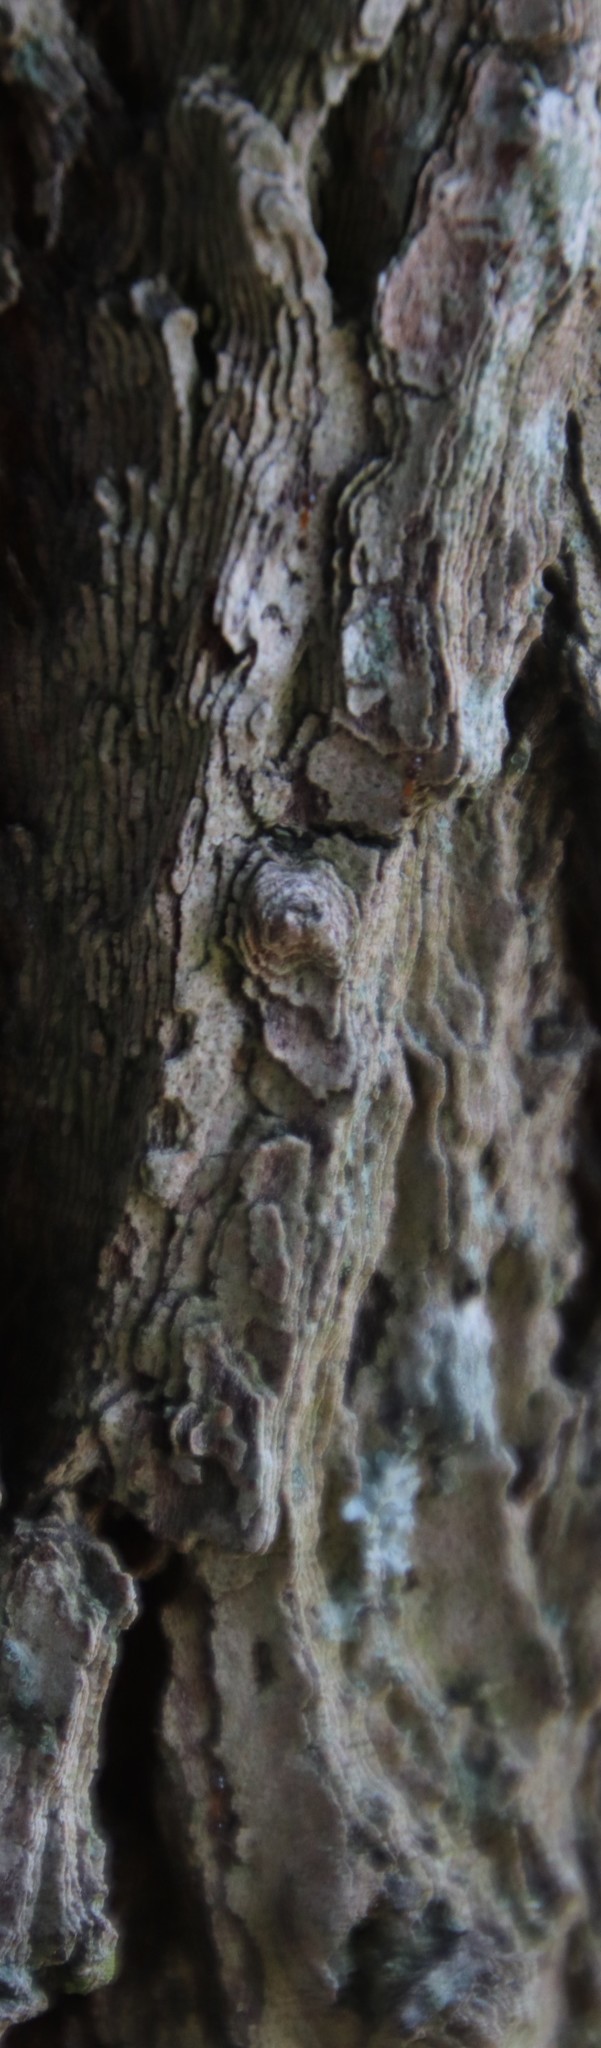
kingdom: Animalia
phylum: Arthropoda
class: Insecta
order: Hymenoptera
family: Formicidae
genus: Pheidole
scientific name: Pheidole megacephala
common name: Bigheaded ant
